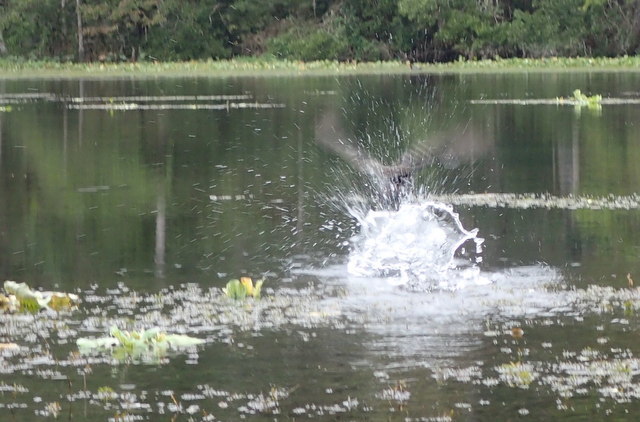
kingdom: Animalia
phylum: Chordata
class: Aves
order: Gruiformes
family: Rallidae
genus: Gallinula
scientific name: Gallinula chloropus
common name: Common moorhen
